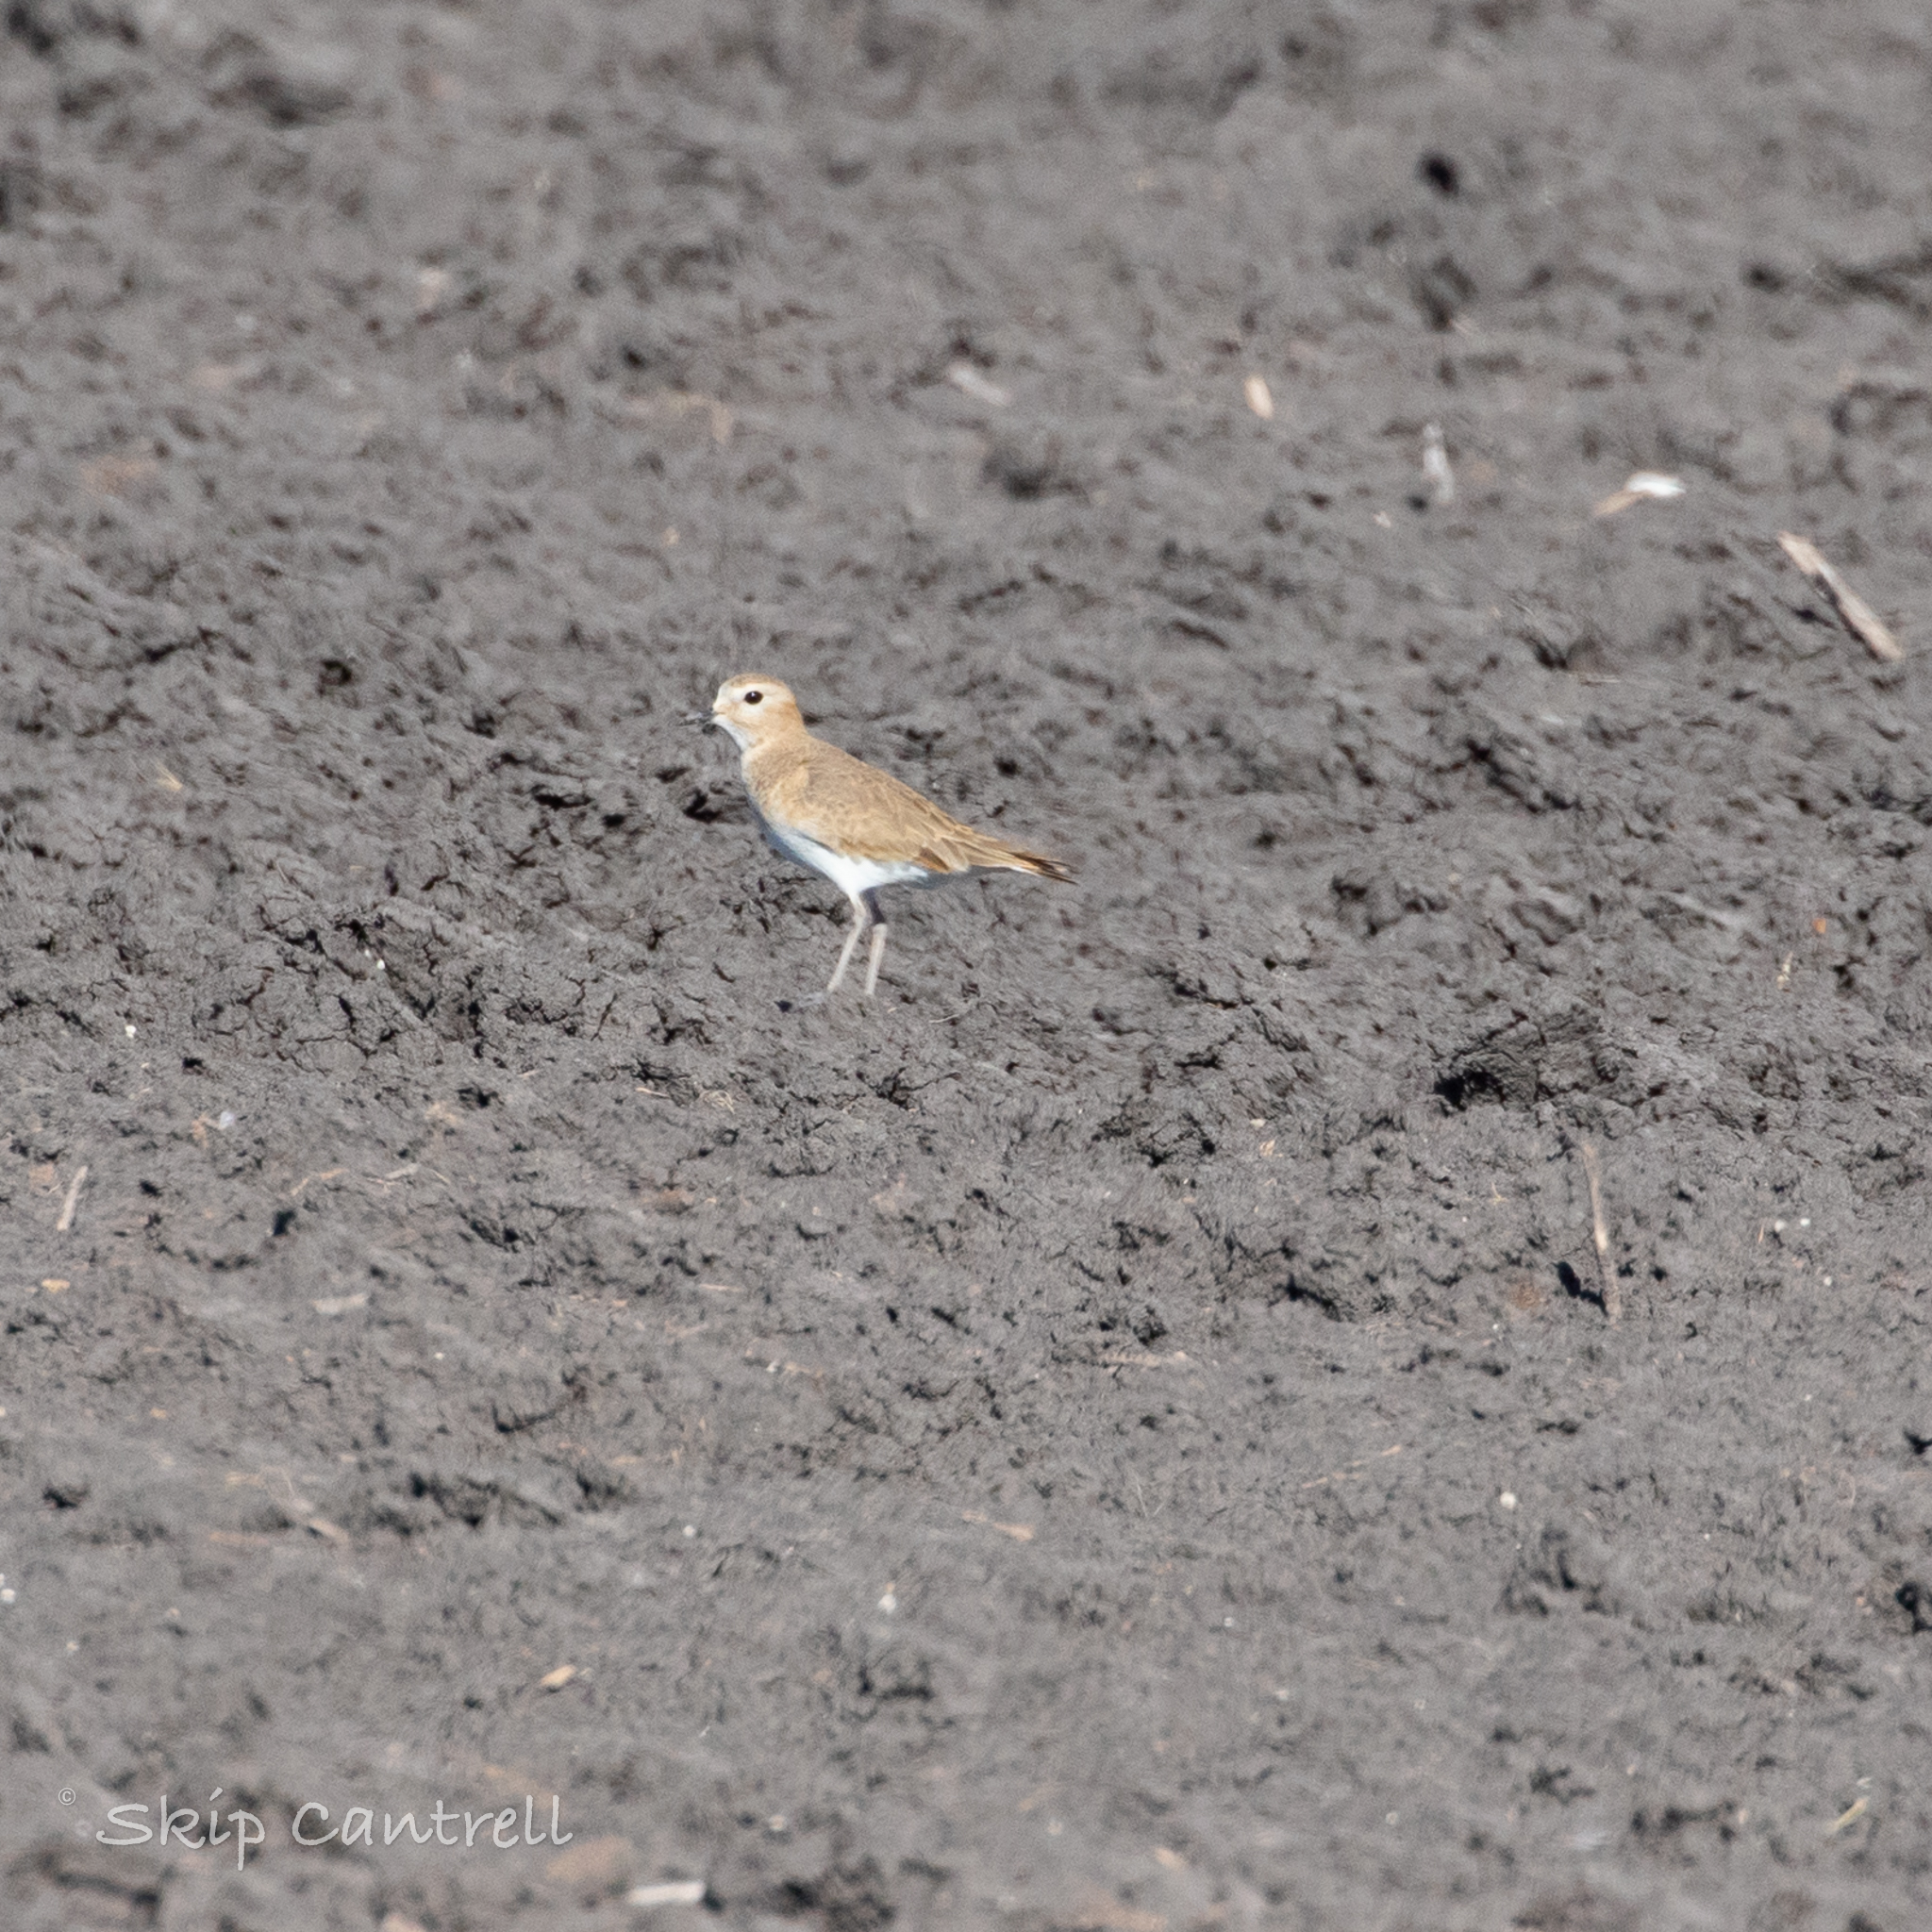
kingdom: Animalia
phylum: Chordata
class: Aves
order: Charadriiformes
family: Charadriidae
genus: Anarhynchus
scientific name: Anarhynchus
